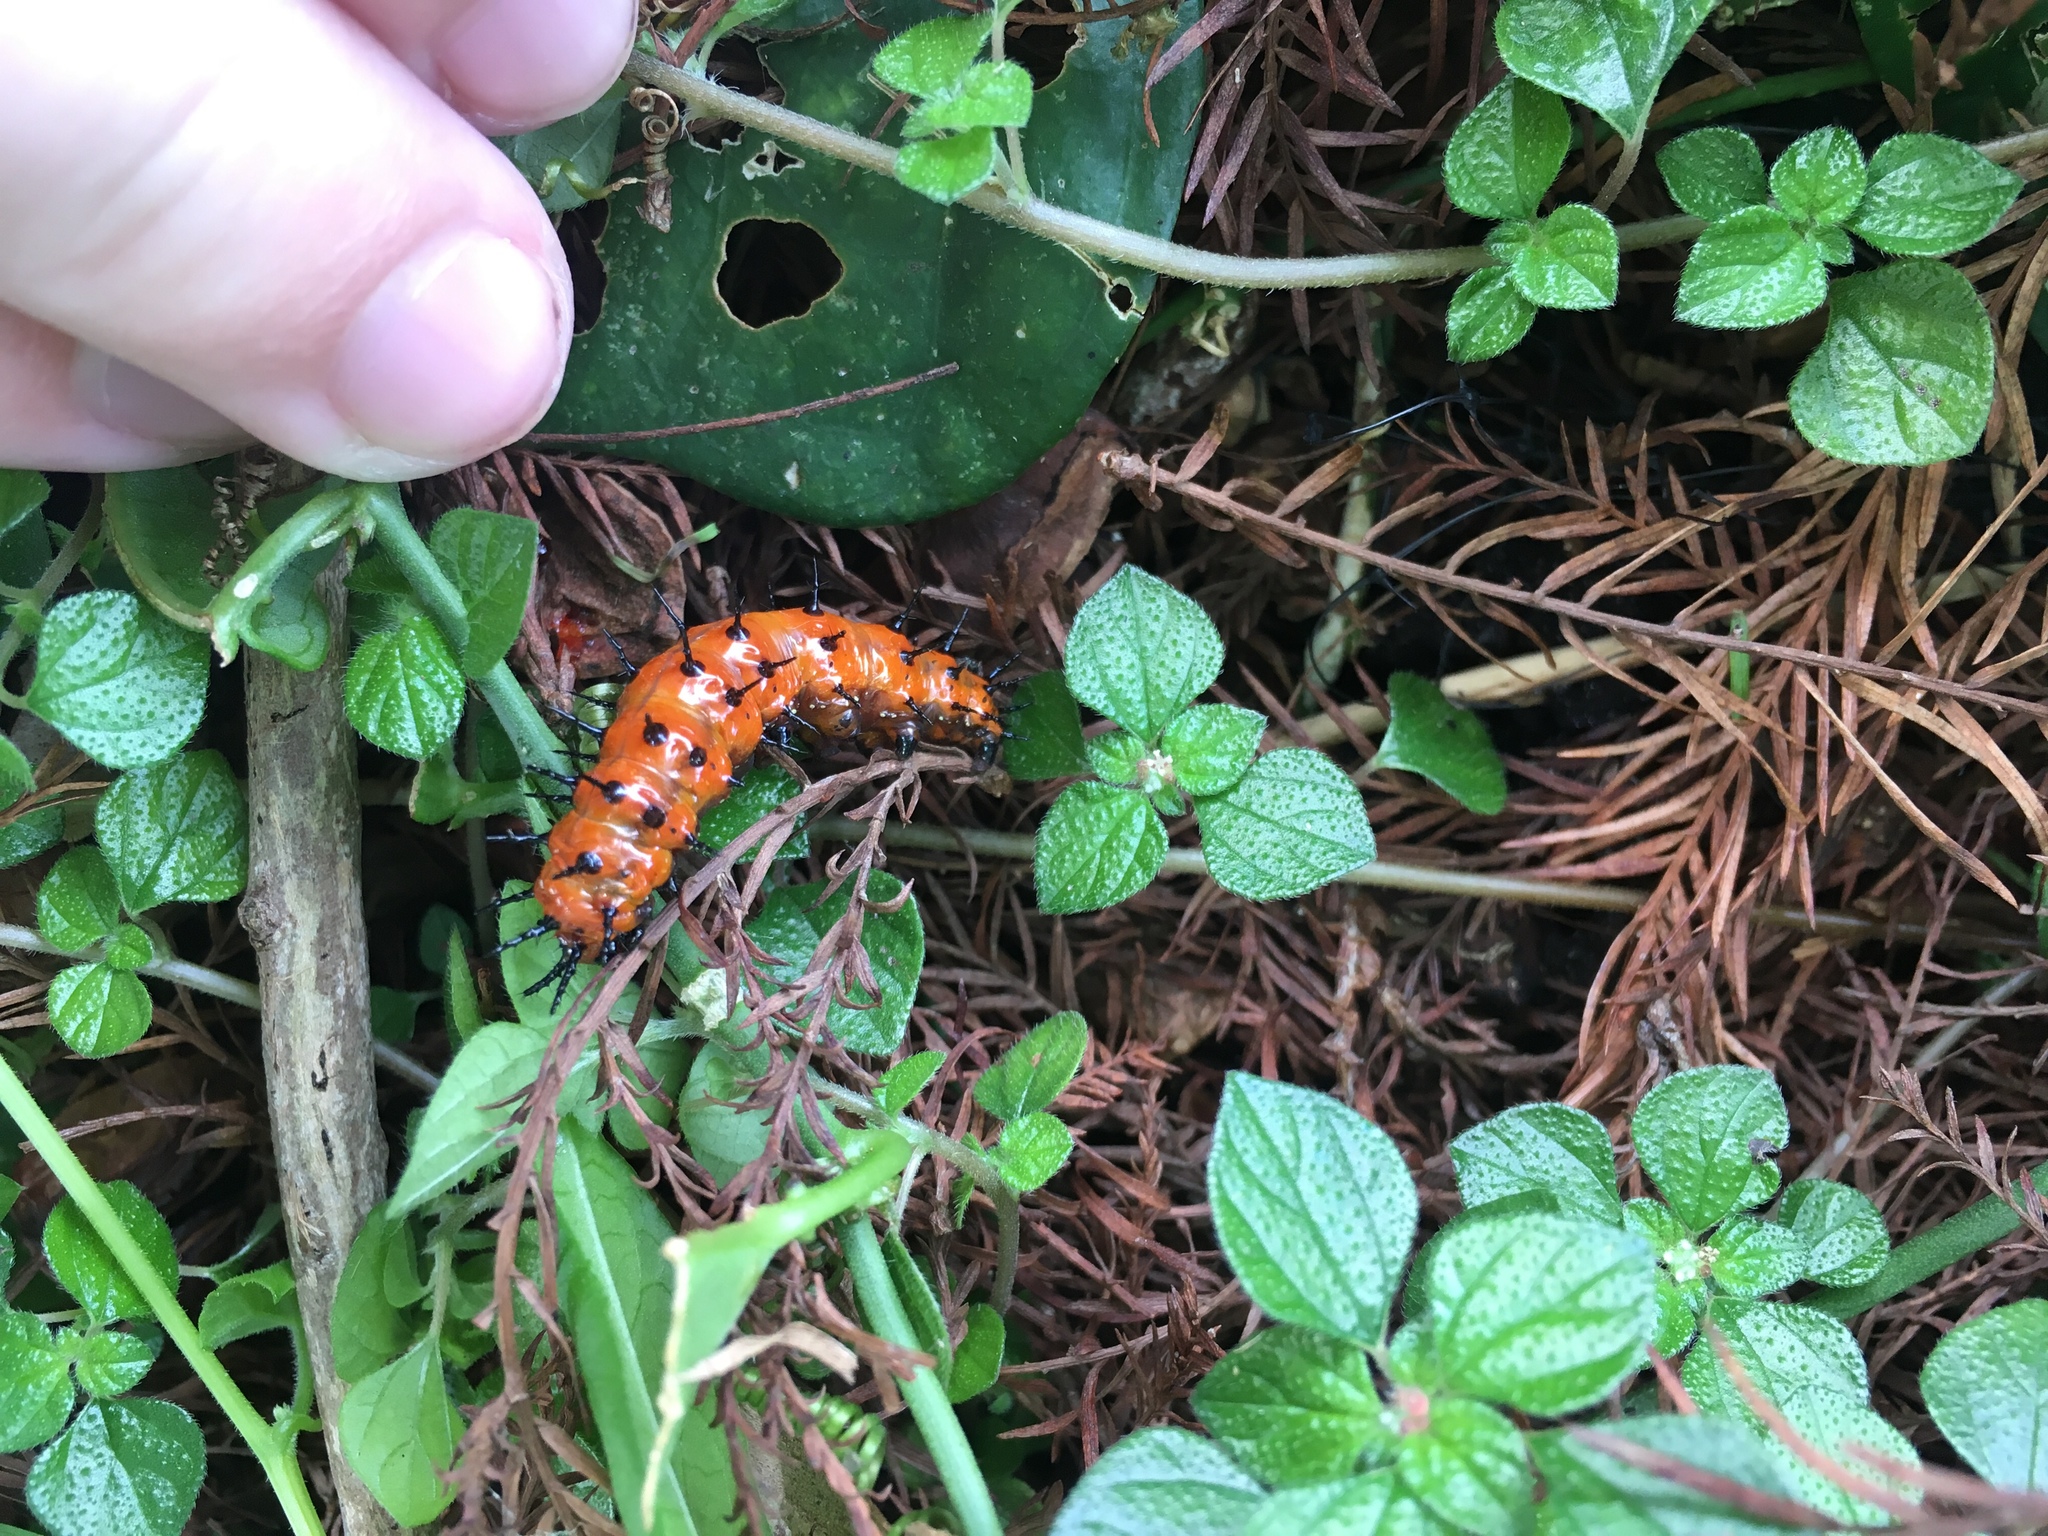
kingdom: Animalia
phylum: Arthropoda
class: Insecta
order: Lepidoptera
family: Nymphalidae
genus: Dione
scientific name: Dione vanillae
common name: Gulf fritillary
